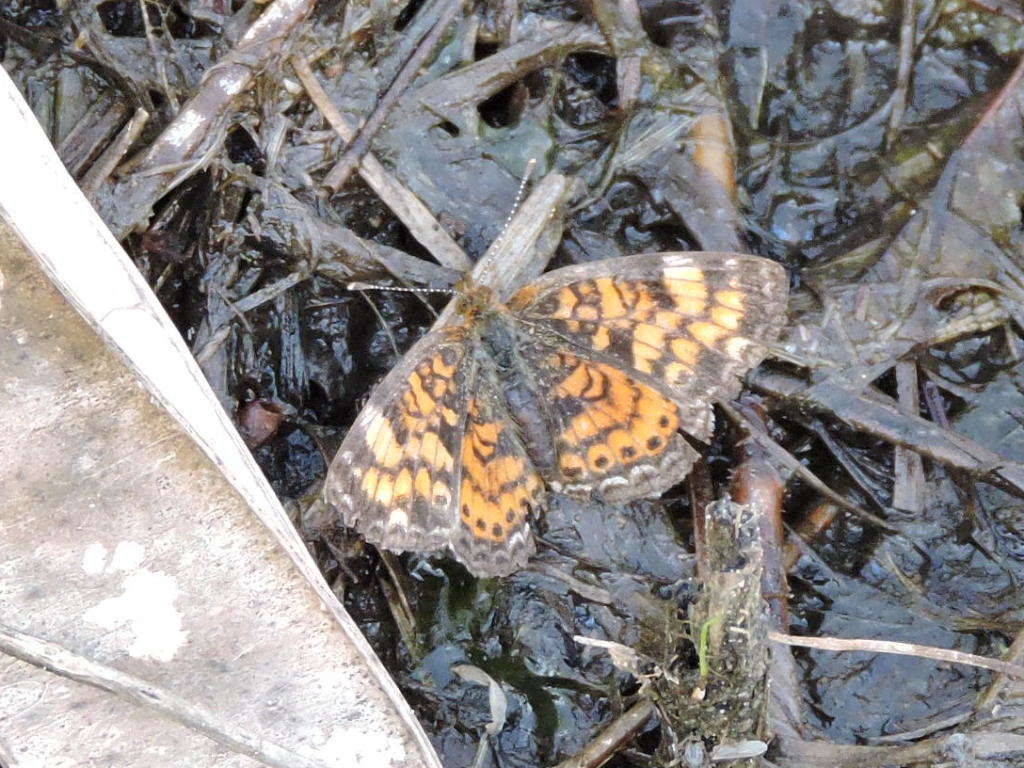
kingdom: Animalia
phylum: Arthropoda
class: Insecta
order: Lepidoptera
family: Nymphalidae
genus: Phyciodes
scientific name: Phyciodes tharos
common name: Pearl crescent
